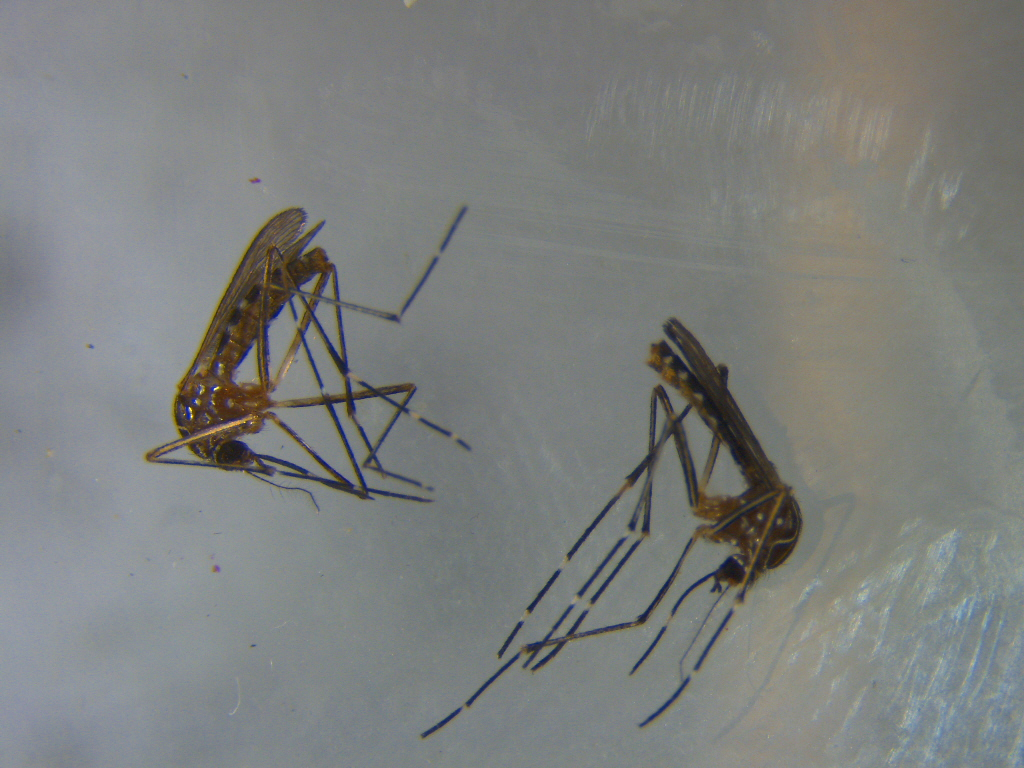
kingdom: Animalia
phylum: Arthropoda
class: Insecta
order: Diptera
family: Culicidae
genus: Aedes
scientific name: Aedes notoscriptus
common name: Australian backyard mosquito
